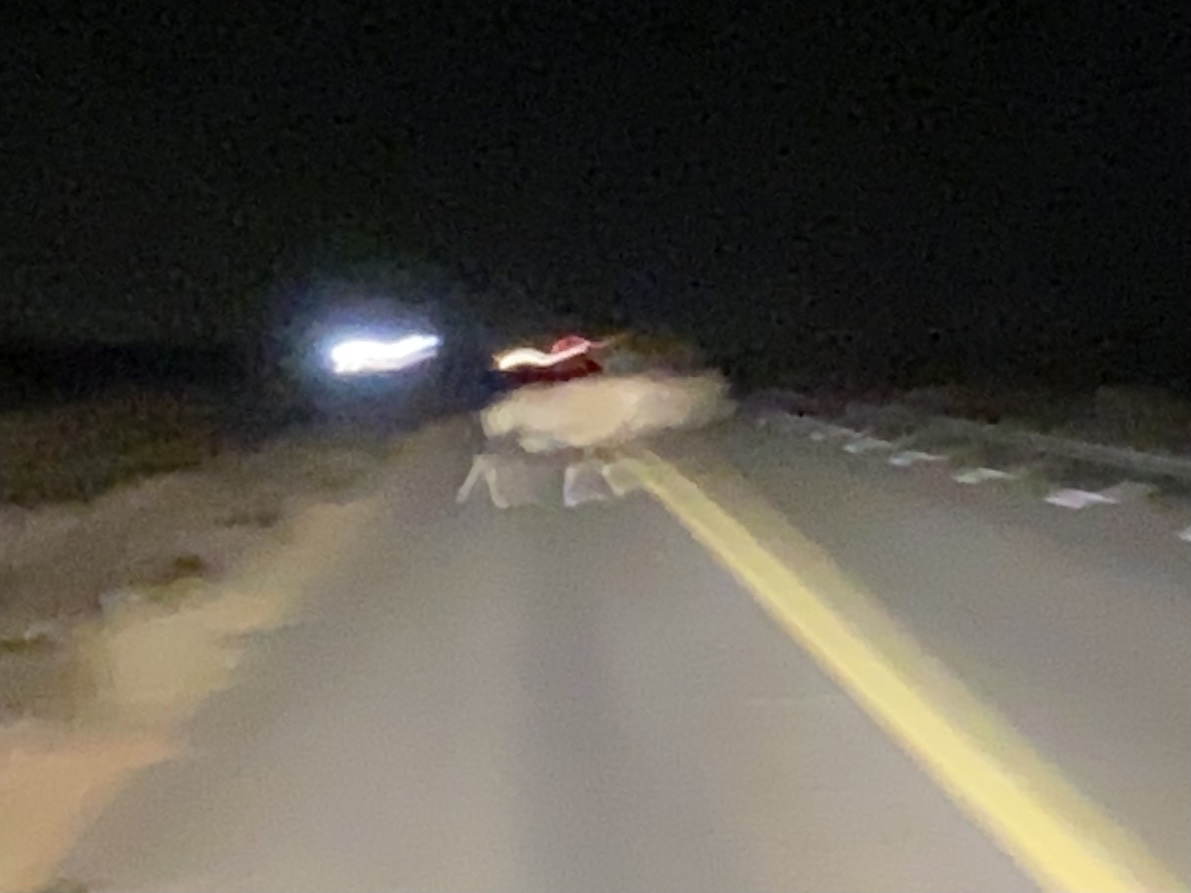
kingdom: Animalia
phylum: Chordata
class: Mammalia
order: Artiodactyla
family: Bovidae
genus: Oryx
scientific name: Oryx gazella
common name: Gemsbok
